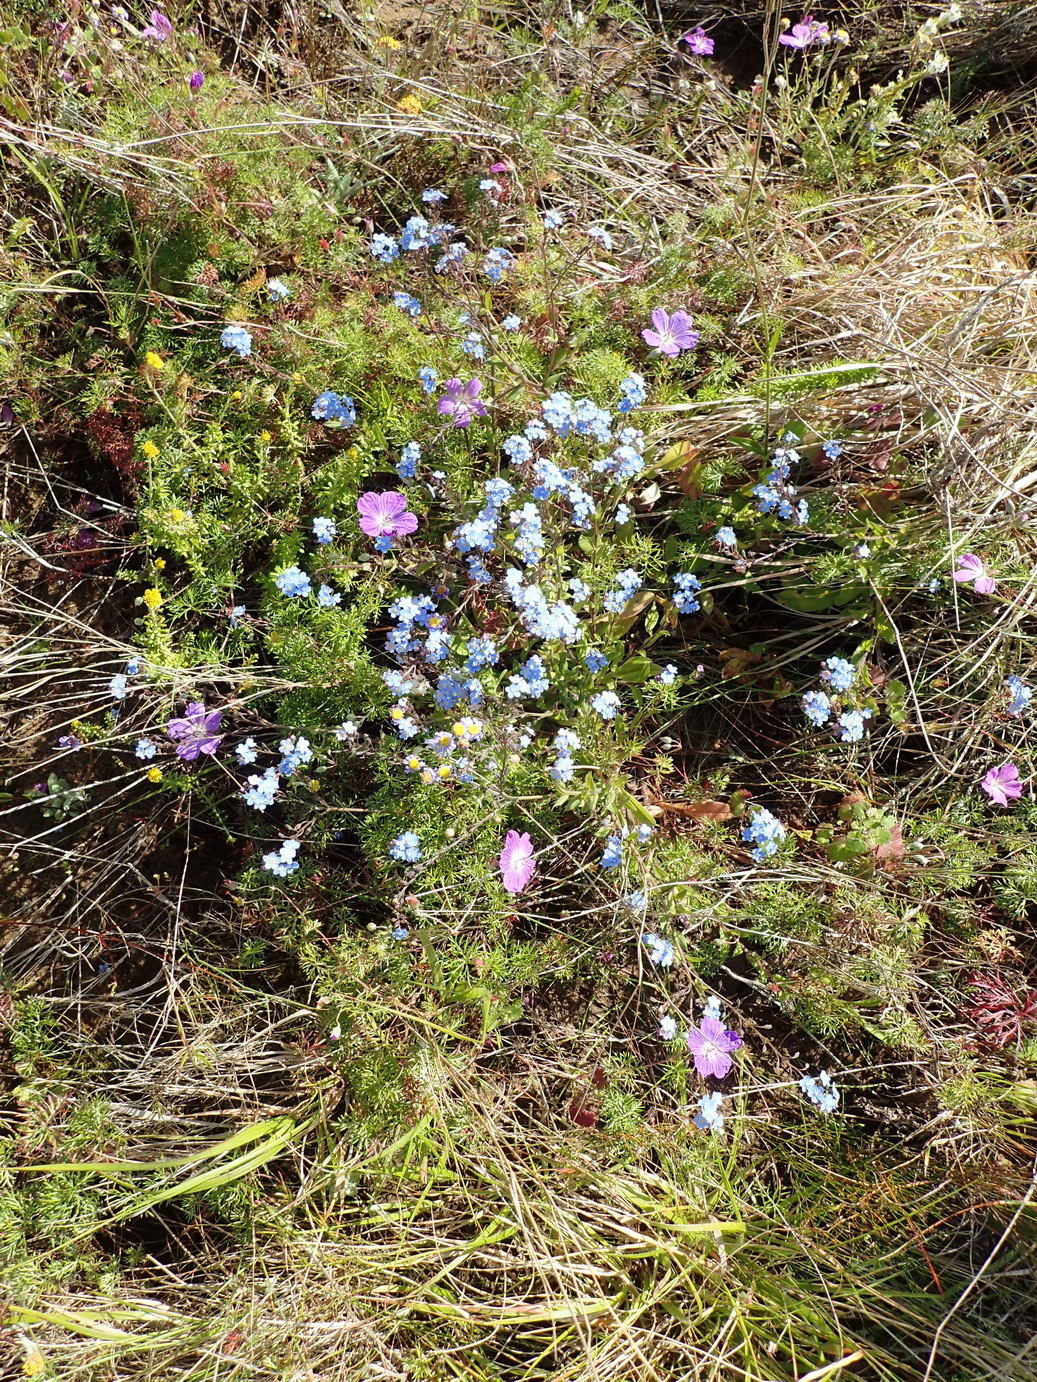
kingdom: Plantae
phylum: Tracheophyta
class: Magnoliopsida
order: Boraginales
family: Boraginaceae
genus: Myosotis
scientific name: Myosotis sylvatica
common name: Wood forget-me-not
